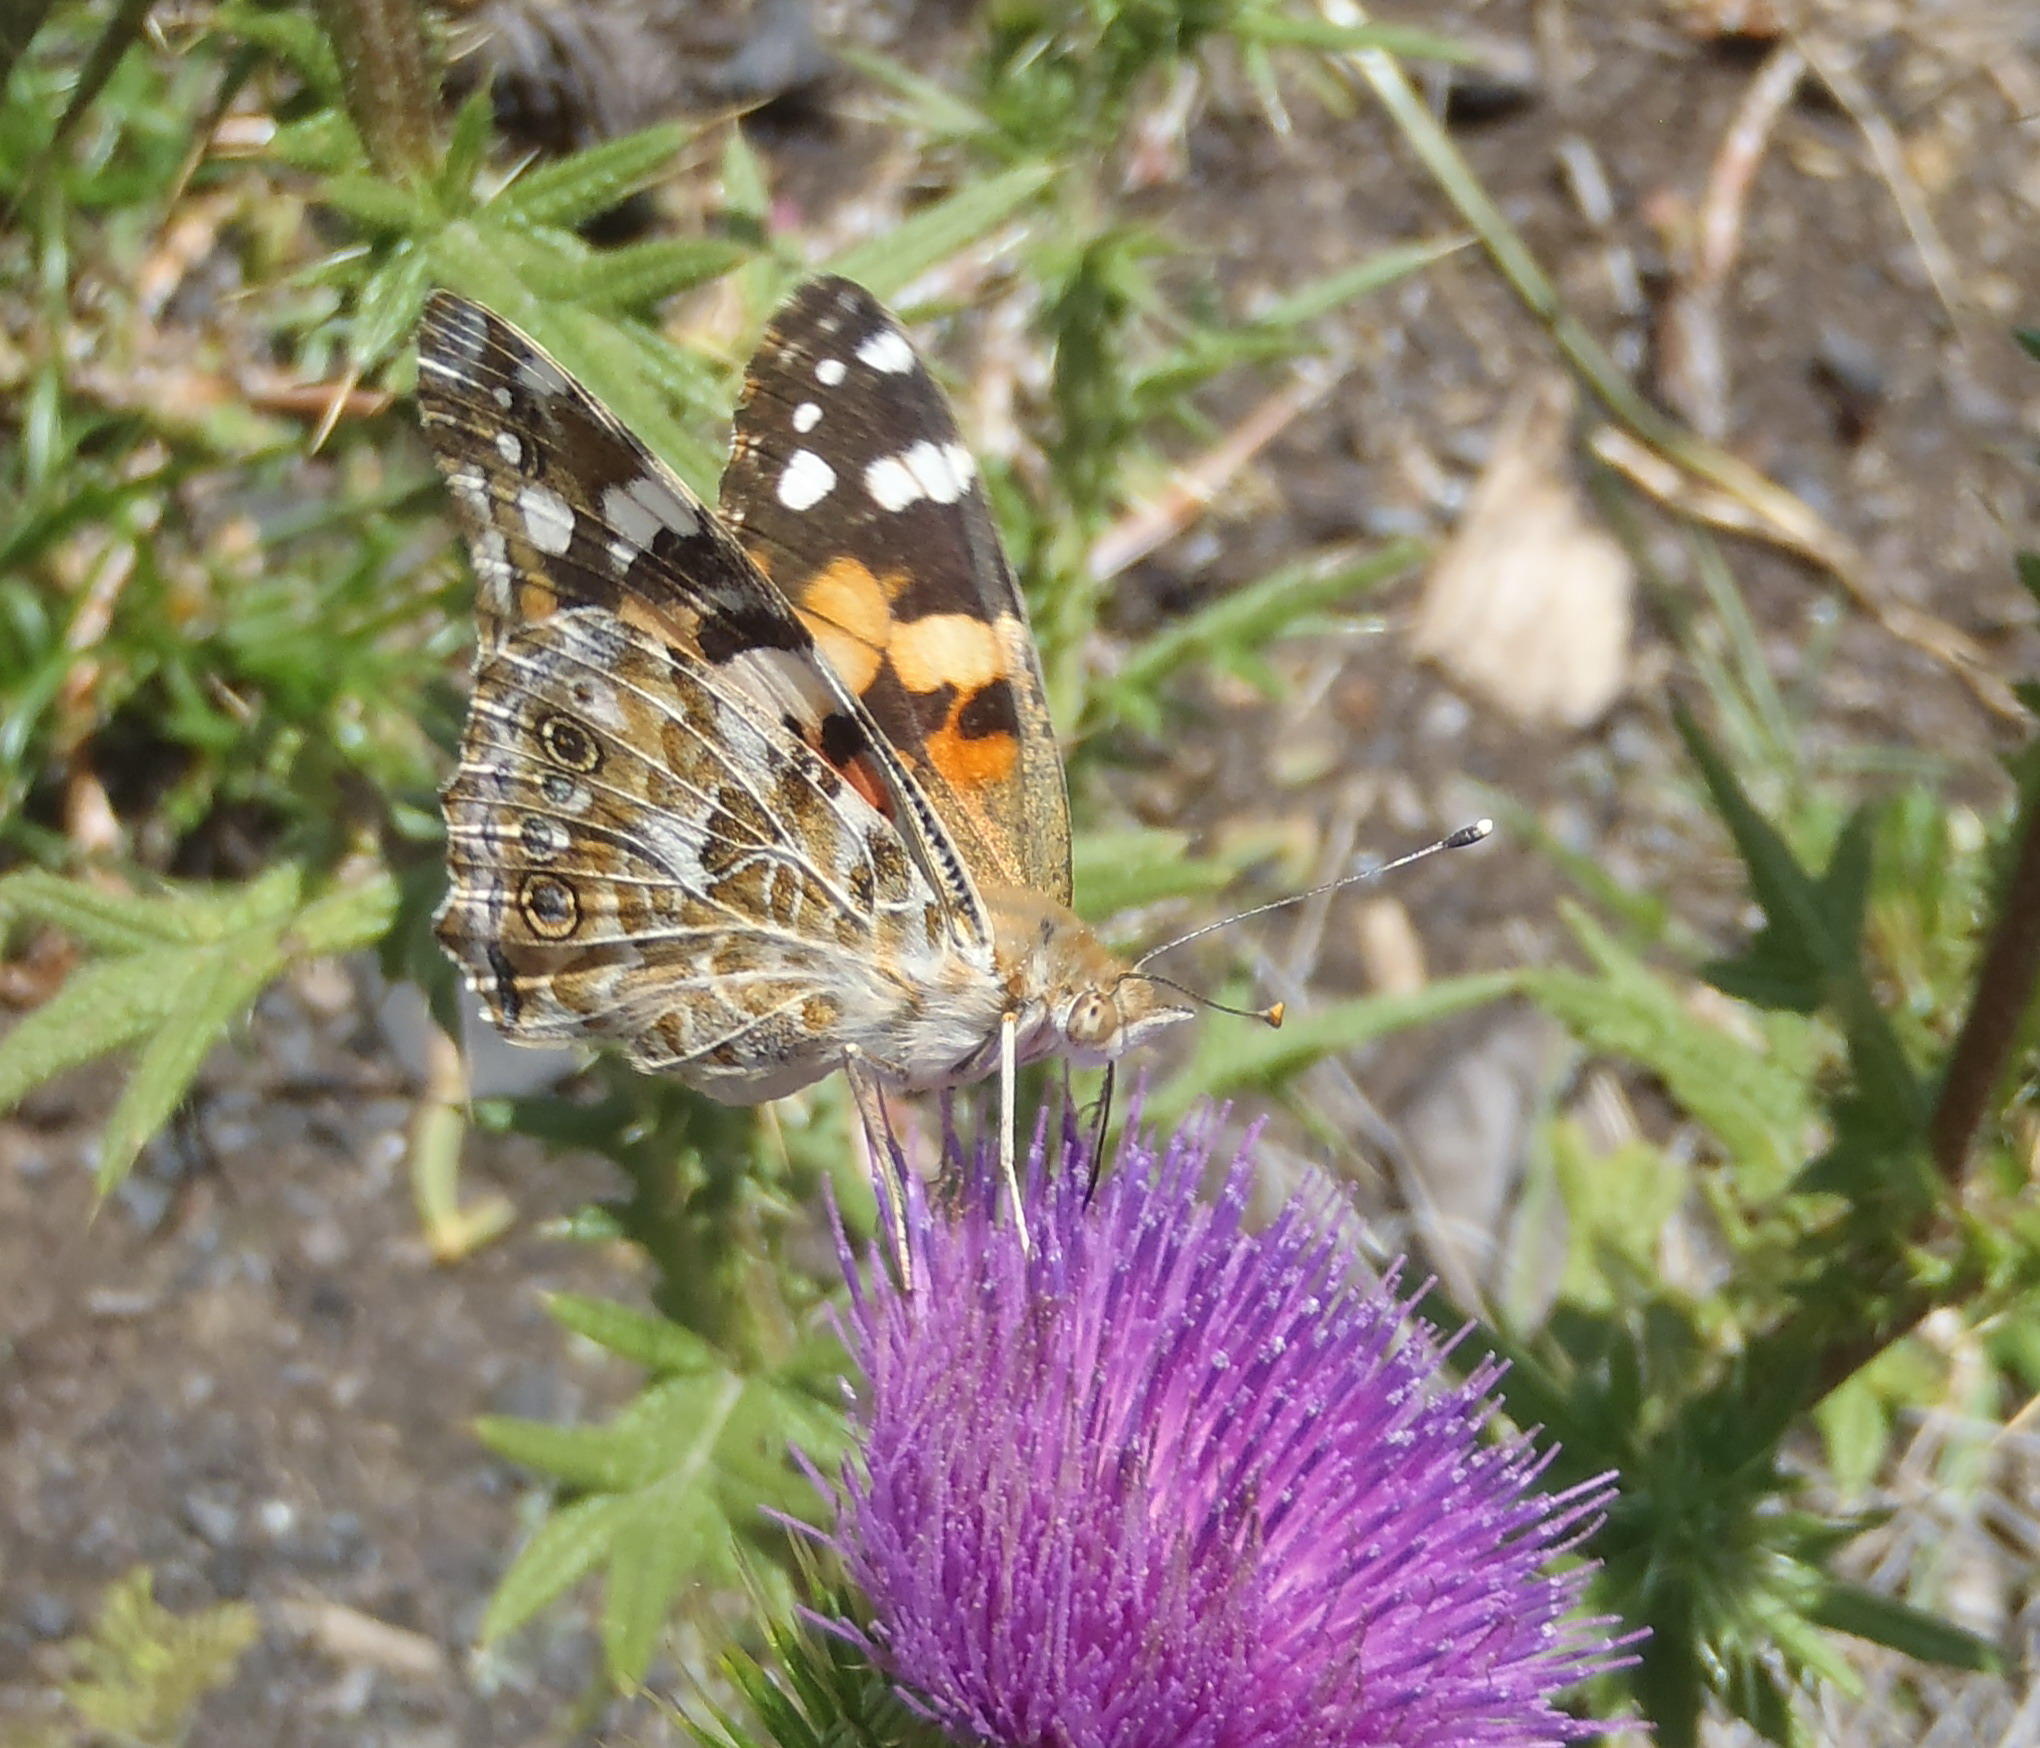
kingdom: Animalia
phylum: Arthropoda
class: Insecta
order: Lepidoptera
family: Nymphalidae
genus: Vanessa
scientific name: Vanessa cardui
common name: Painted lady
